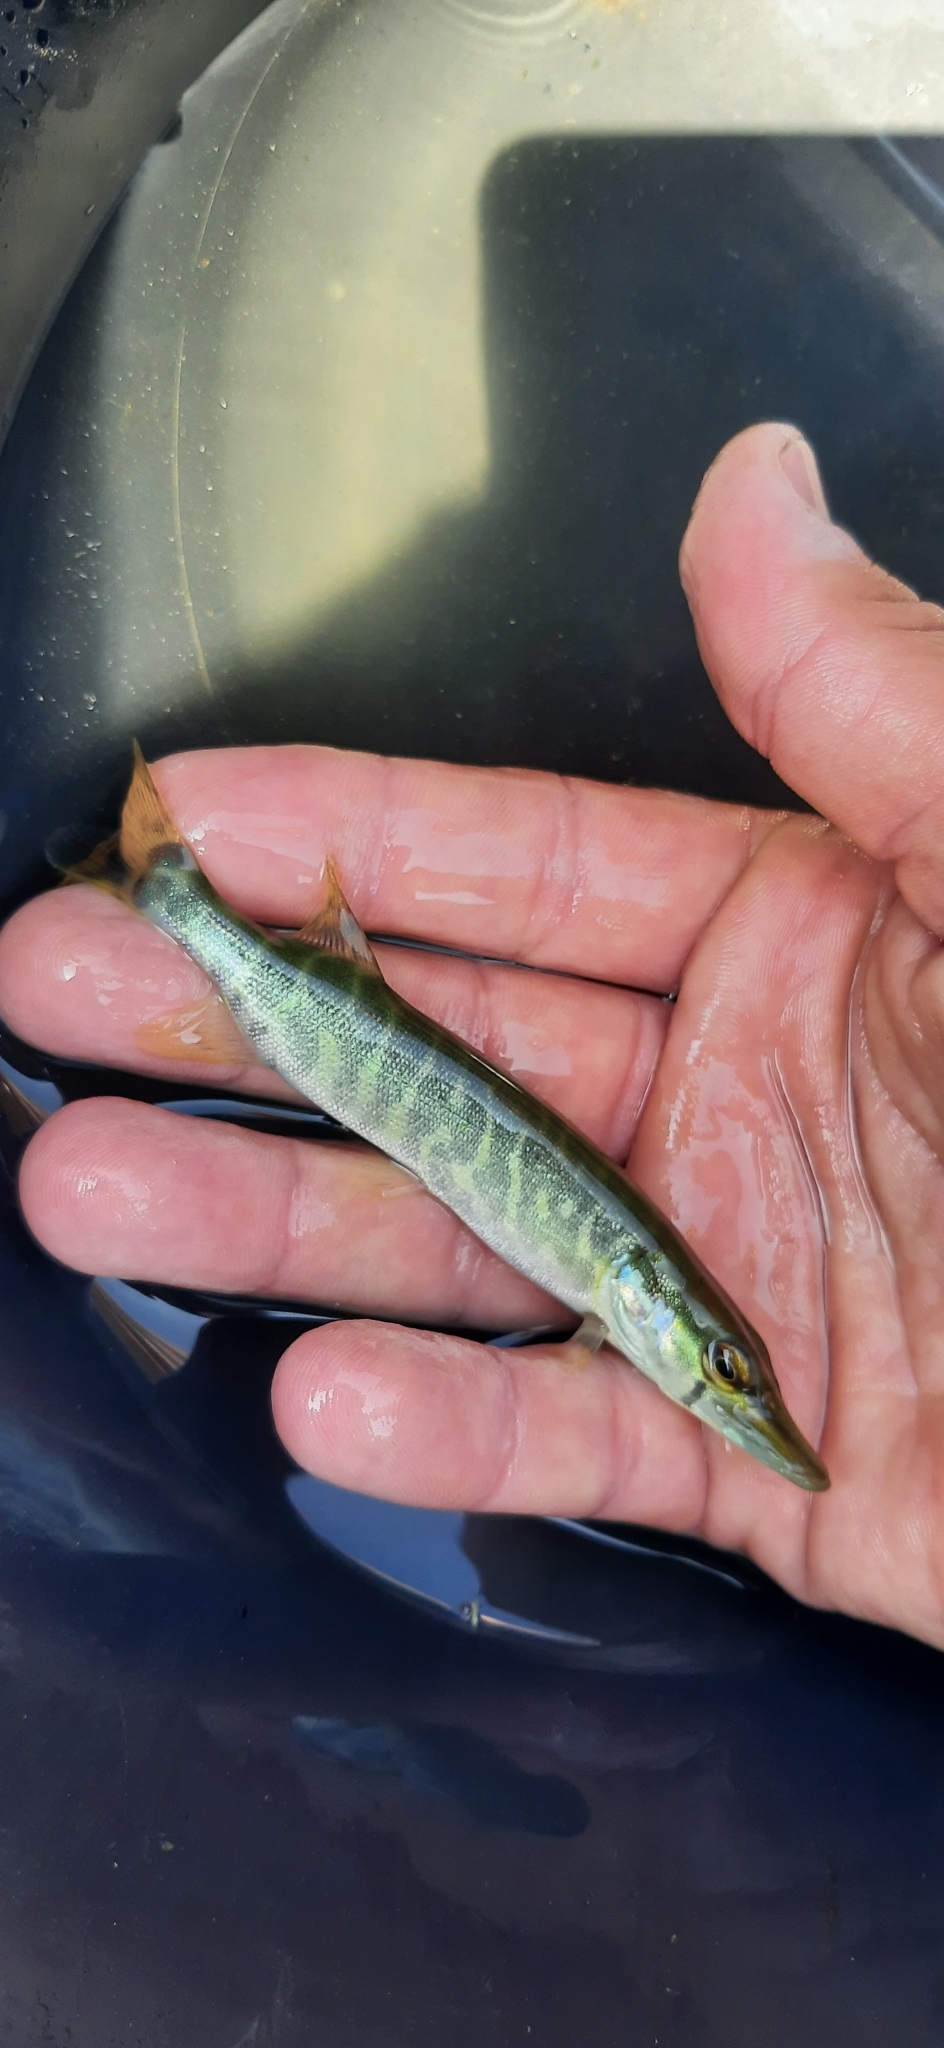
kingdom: Animalia
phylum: Chordata
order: Esociformes
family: Esocidae
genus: Esox
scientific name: Esox lucius
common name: Northern pike
